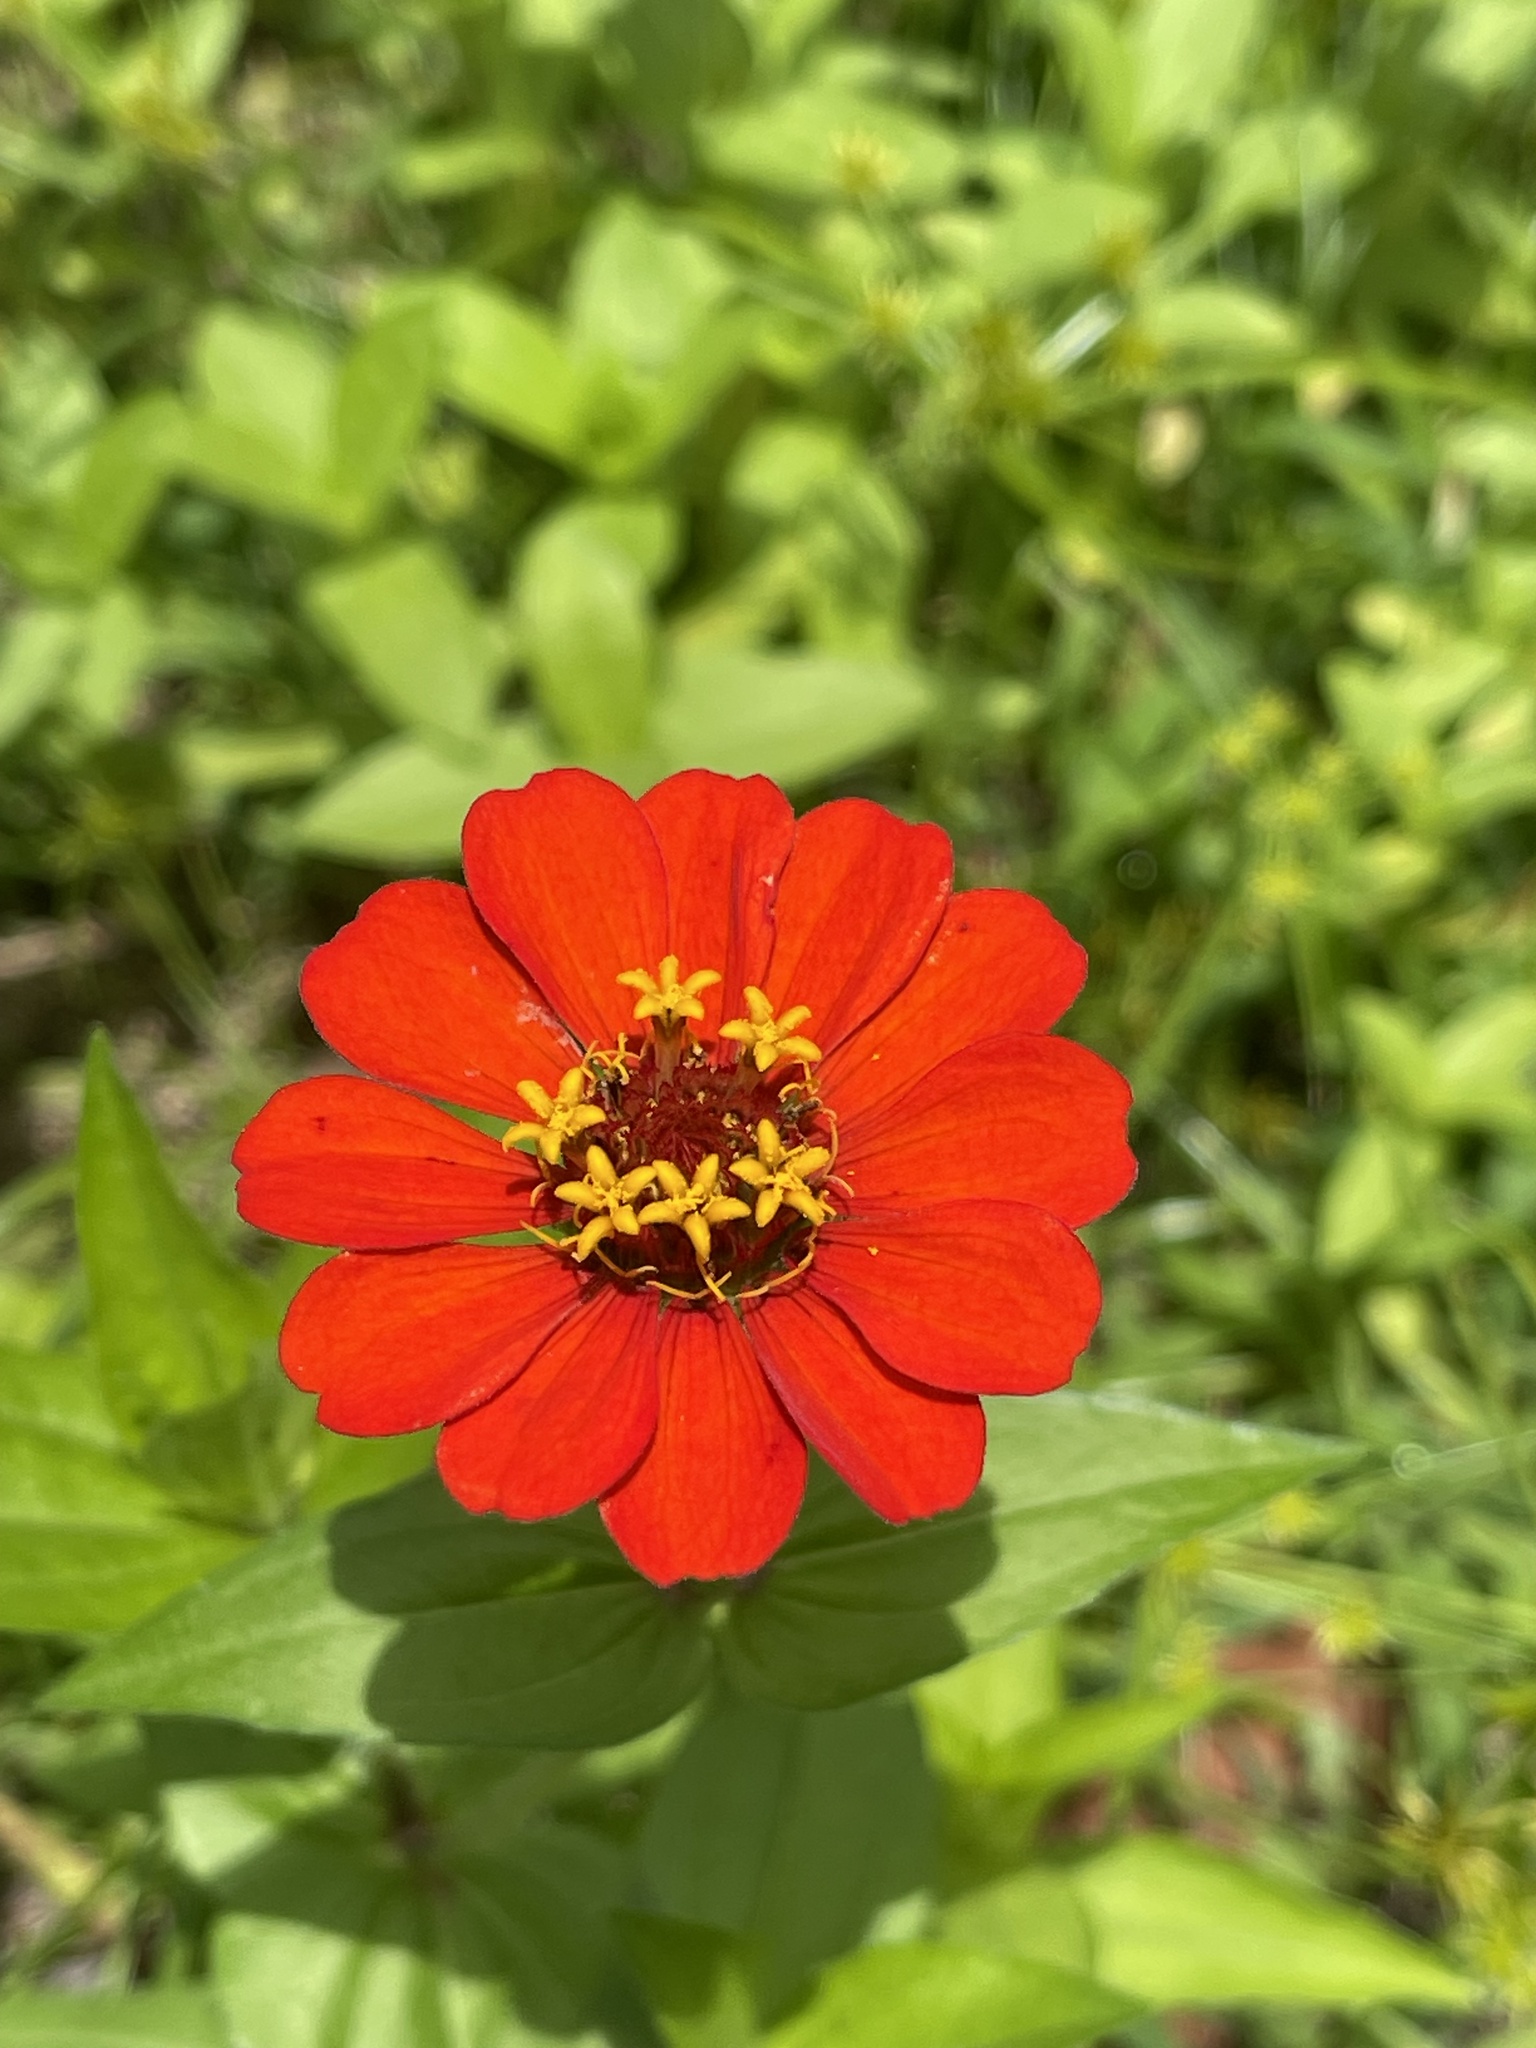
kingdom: Plantae
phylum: Tracheophyta
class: Magnoliopsida
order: Asterales
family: Asteraceae
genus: Zinnia
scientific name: Zinnia elegans
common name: Youth-and-age
